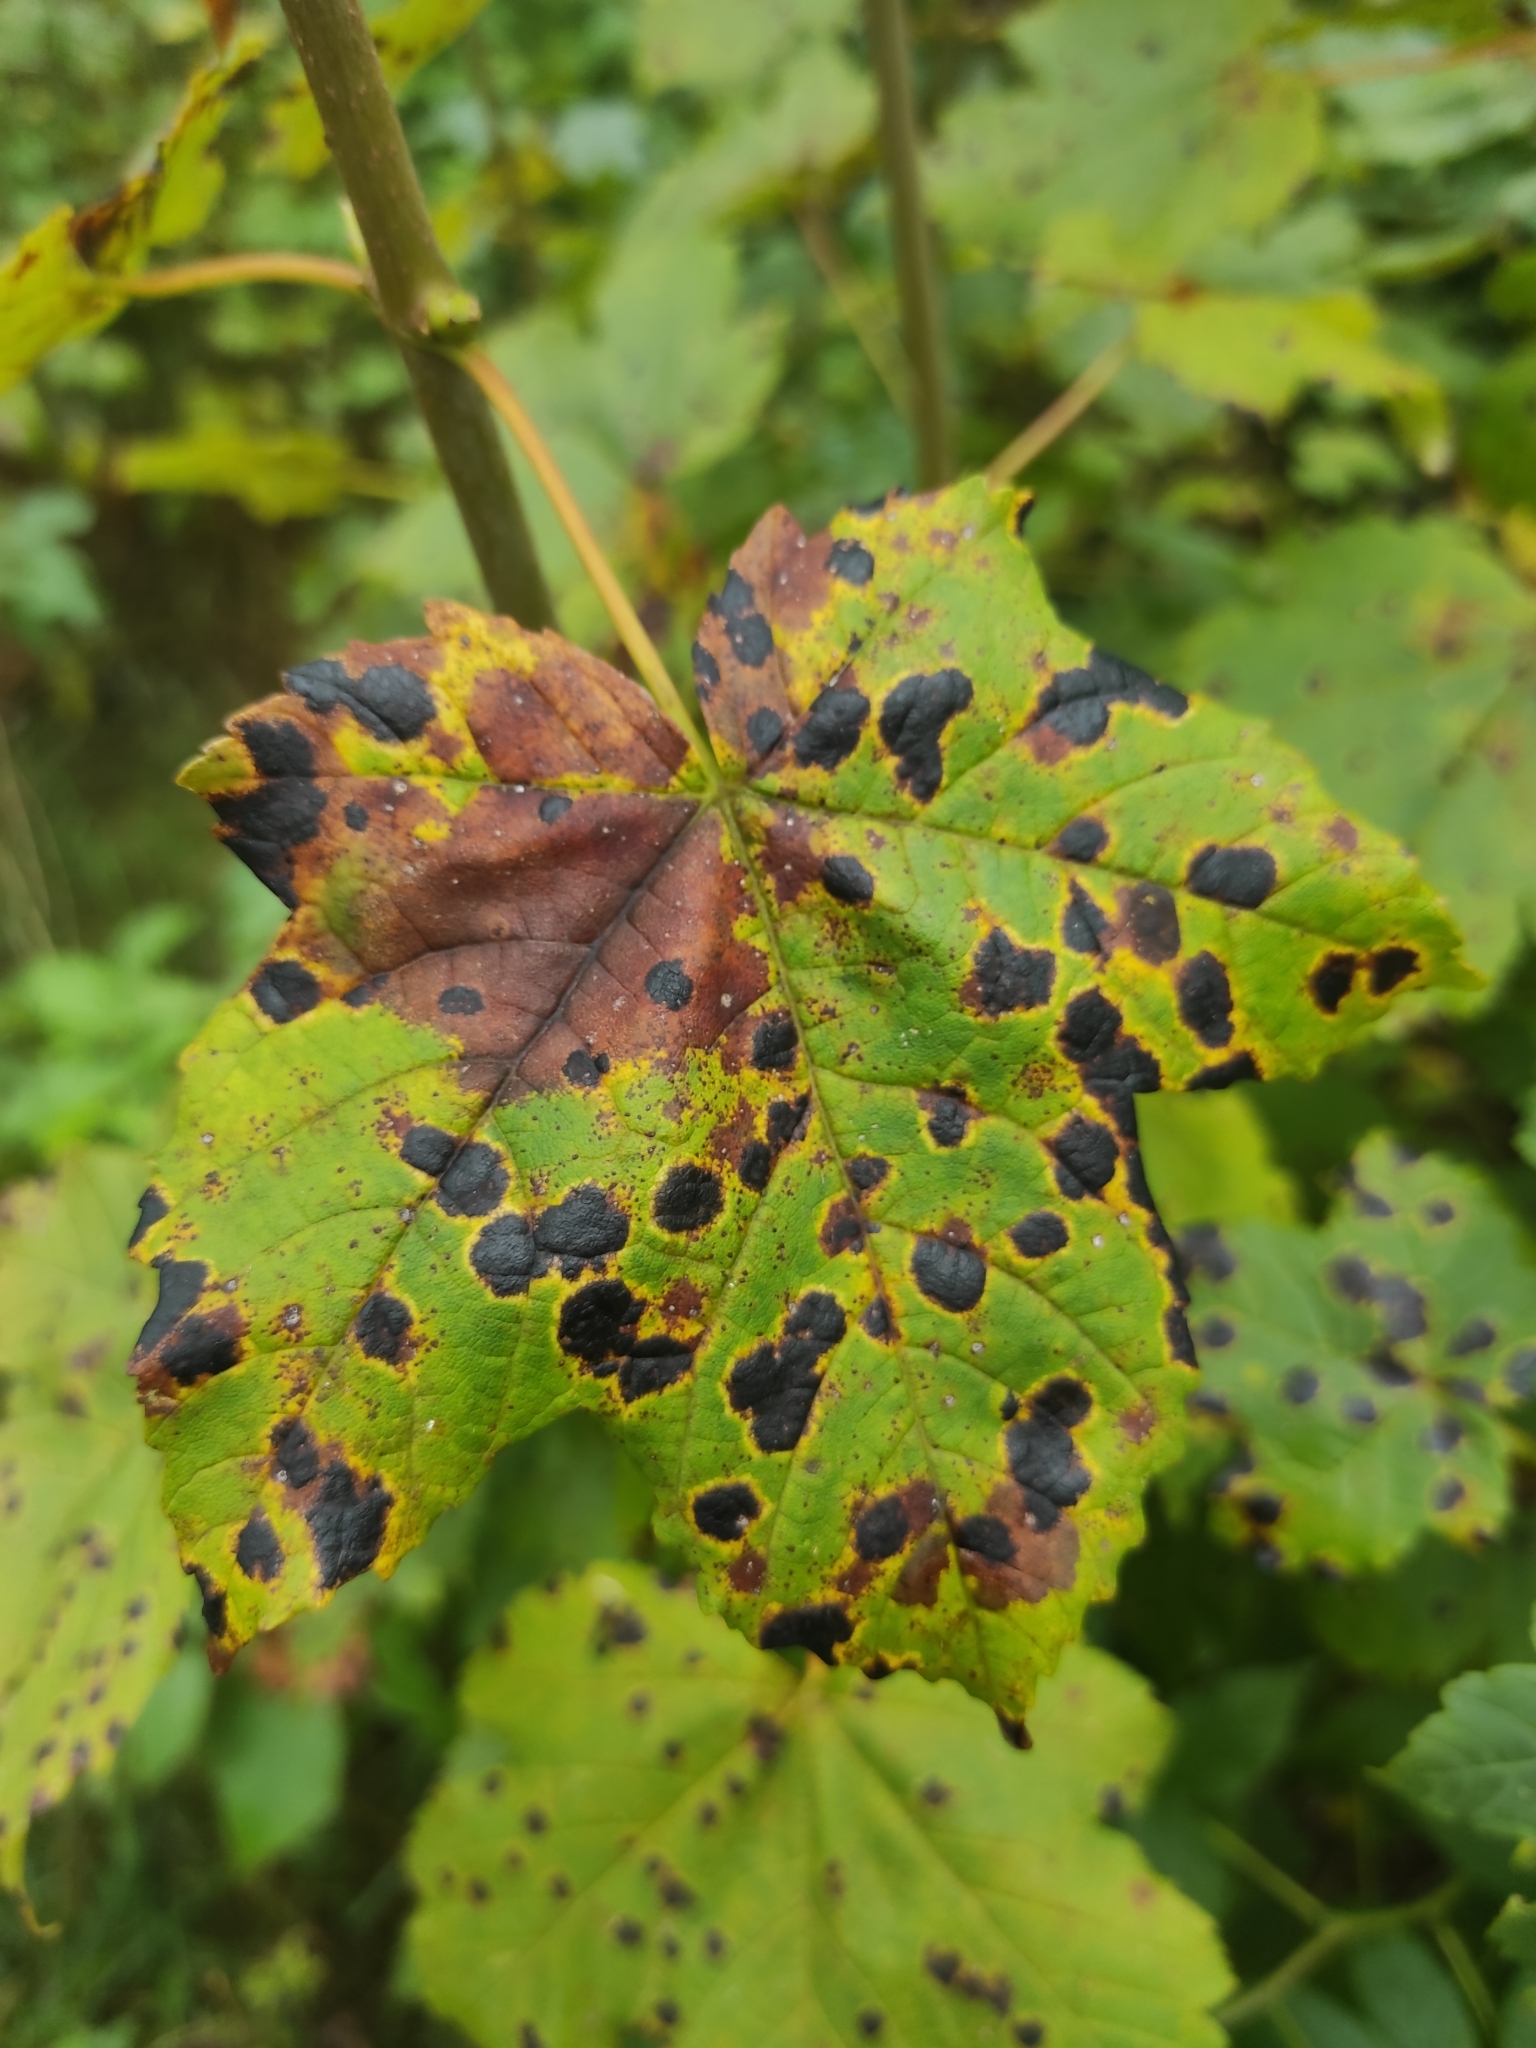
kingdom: Fungi
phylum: Ascomycota
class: Leotiomycetes
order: Rhytismatales
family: Rhytismataceae
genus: Rhytisma
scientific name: Rhytisma acerinum
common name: European tar spot
